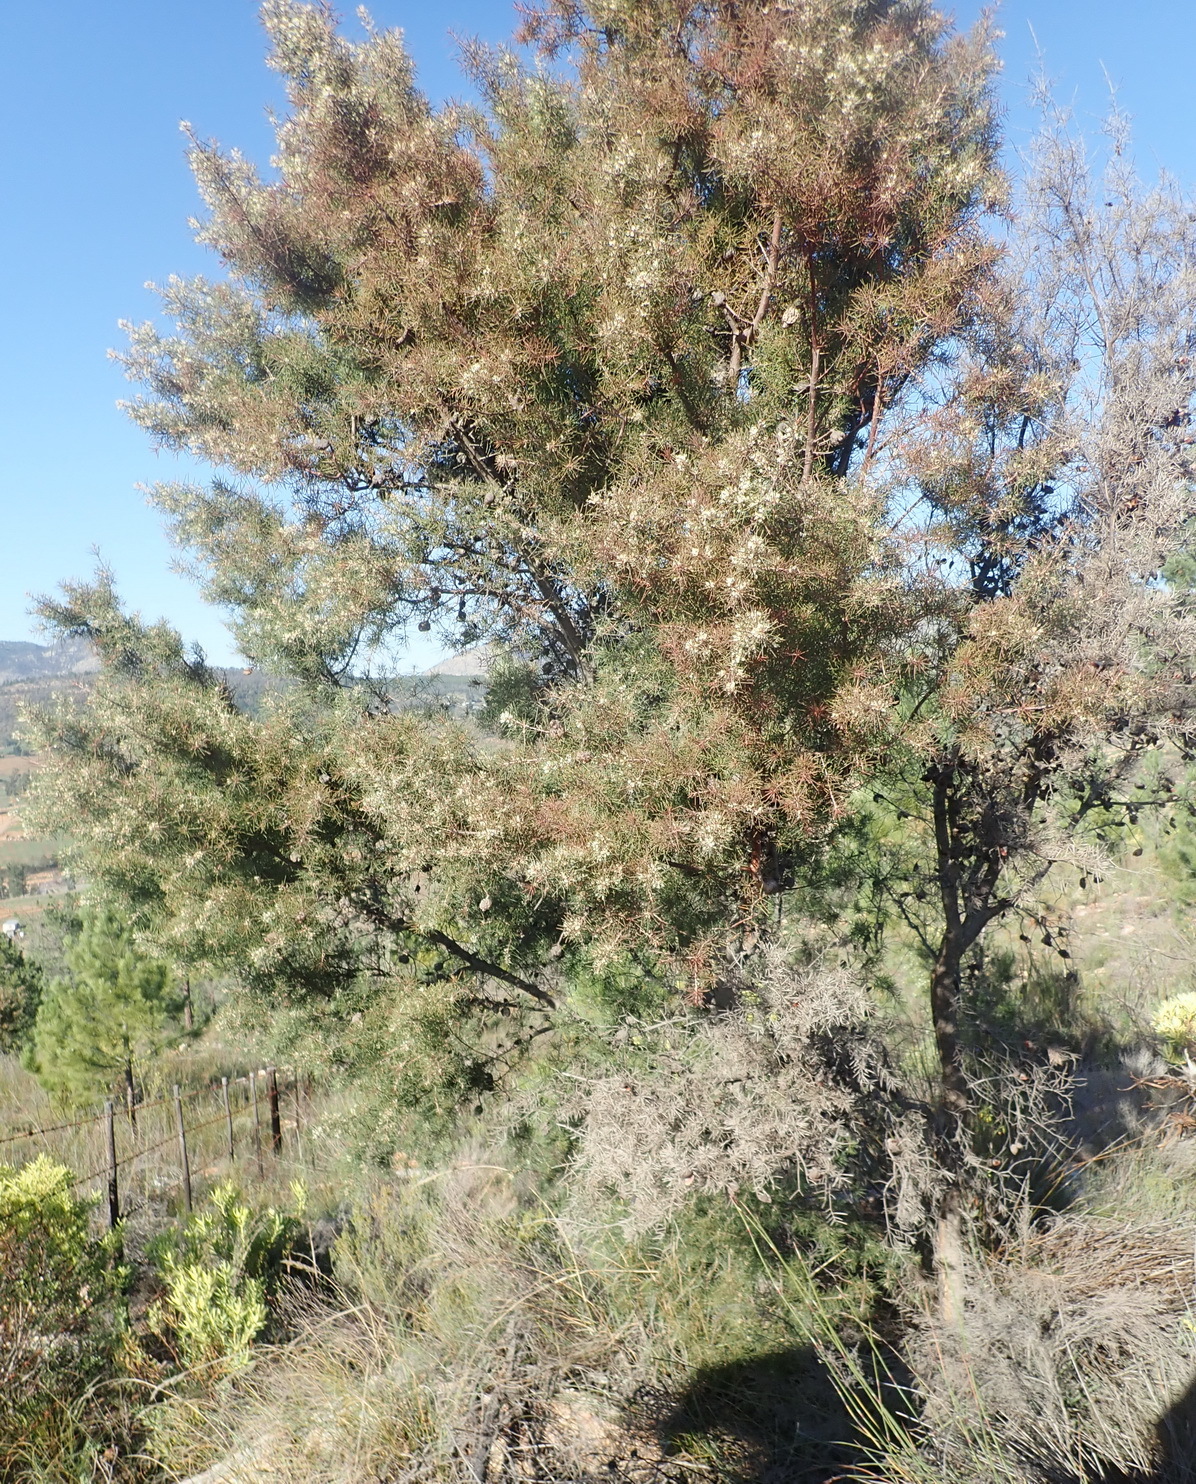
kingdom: Plantae
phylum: Tracheophyta
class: Magnoliopsida
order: Proteales
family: Proteaceae
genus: Hakea
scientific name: Hakea sericea
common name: Needle bush
